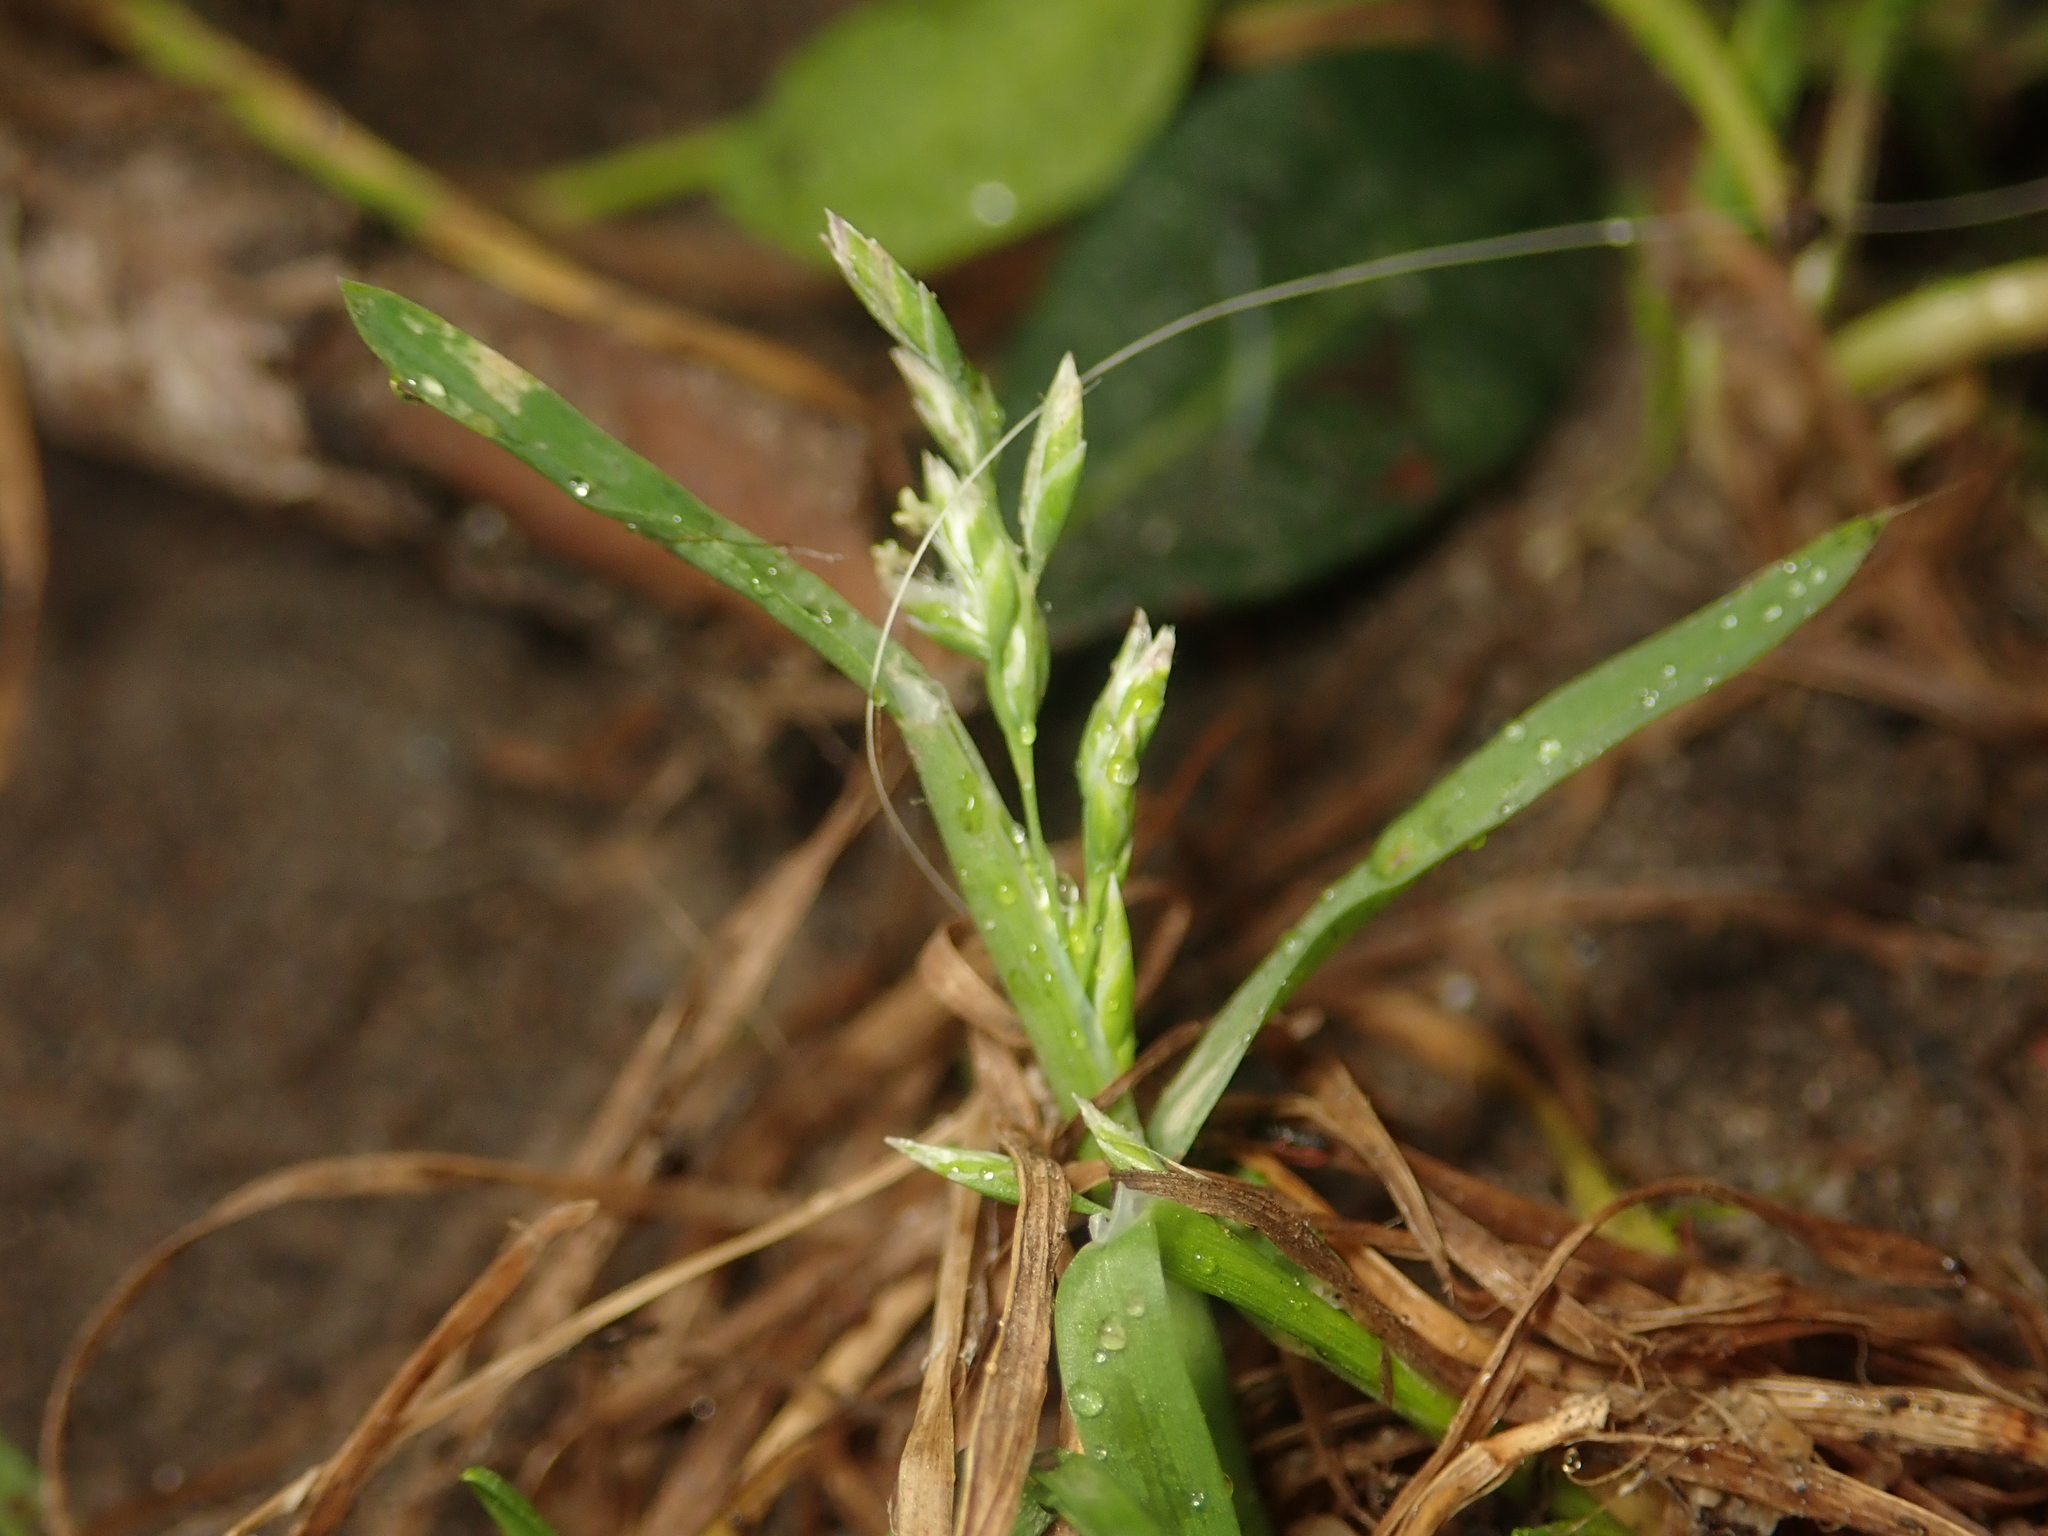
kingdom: Plantae
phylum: Tracheophyta
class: Liliopsida
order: Poales
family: Poaceae
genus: Poa
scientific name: Poa annua
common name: Annual bluegrass
